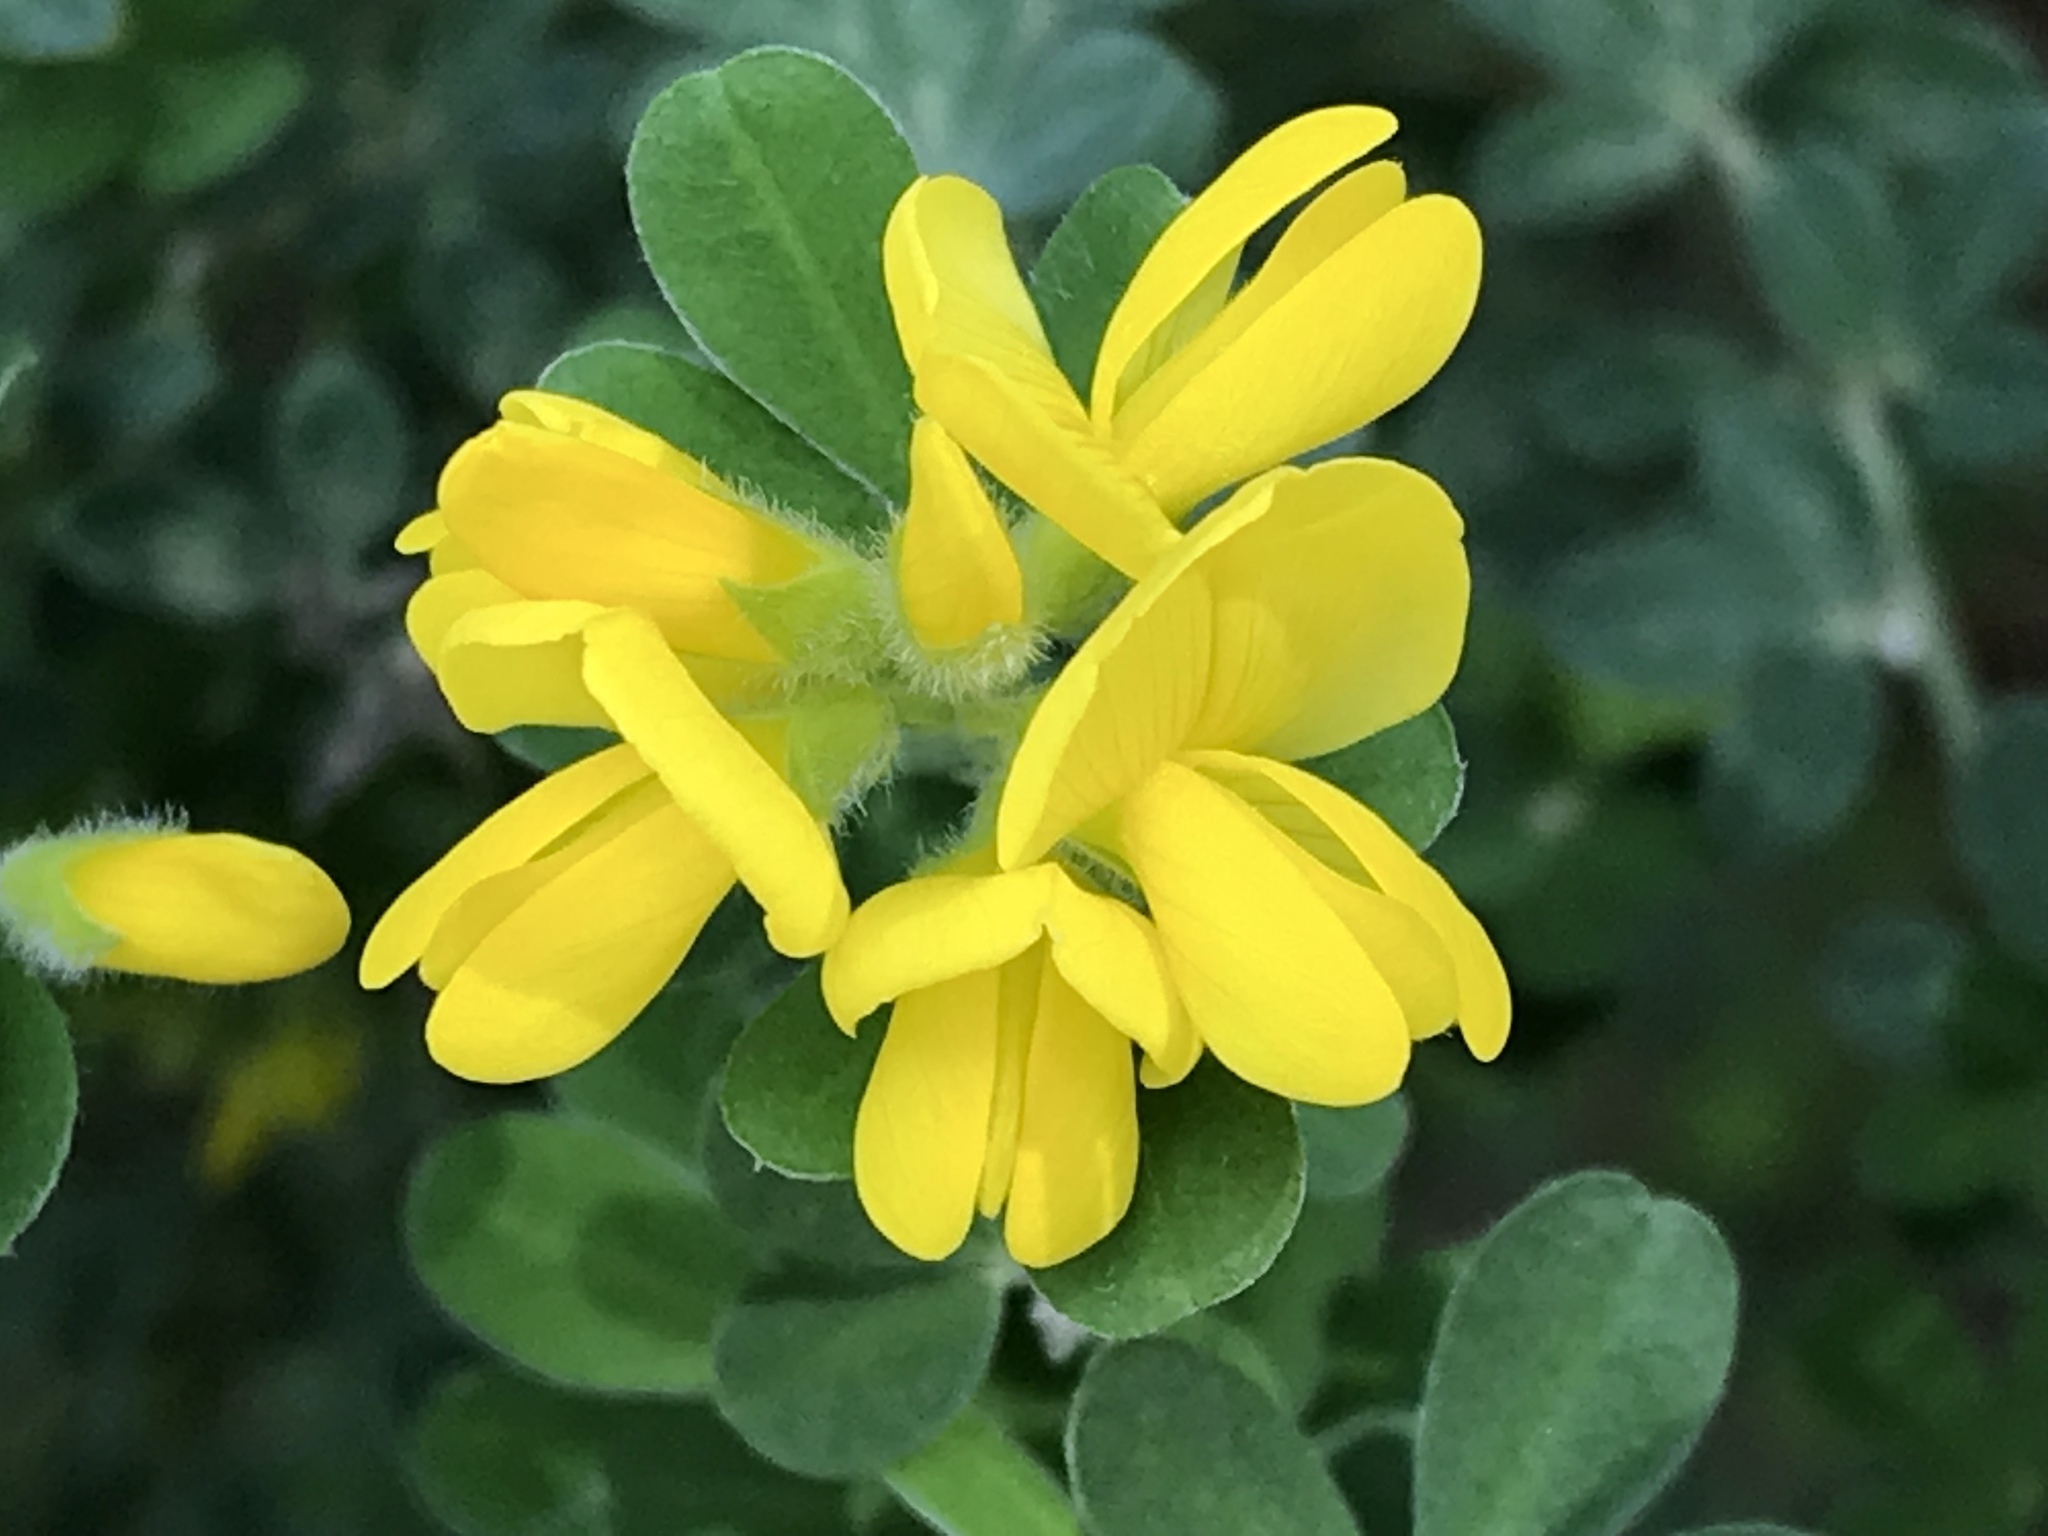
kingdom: Plantae
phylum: Tracheophyta
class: Magnoliopsida
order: Fabales
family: Fabaceae
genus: Genista
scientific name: Genista monspessulana
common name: Montpellier broom
